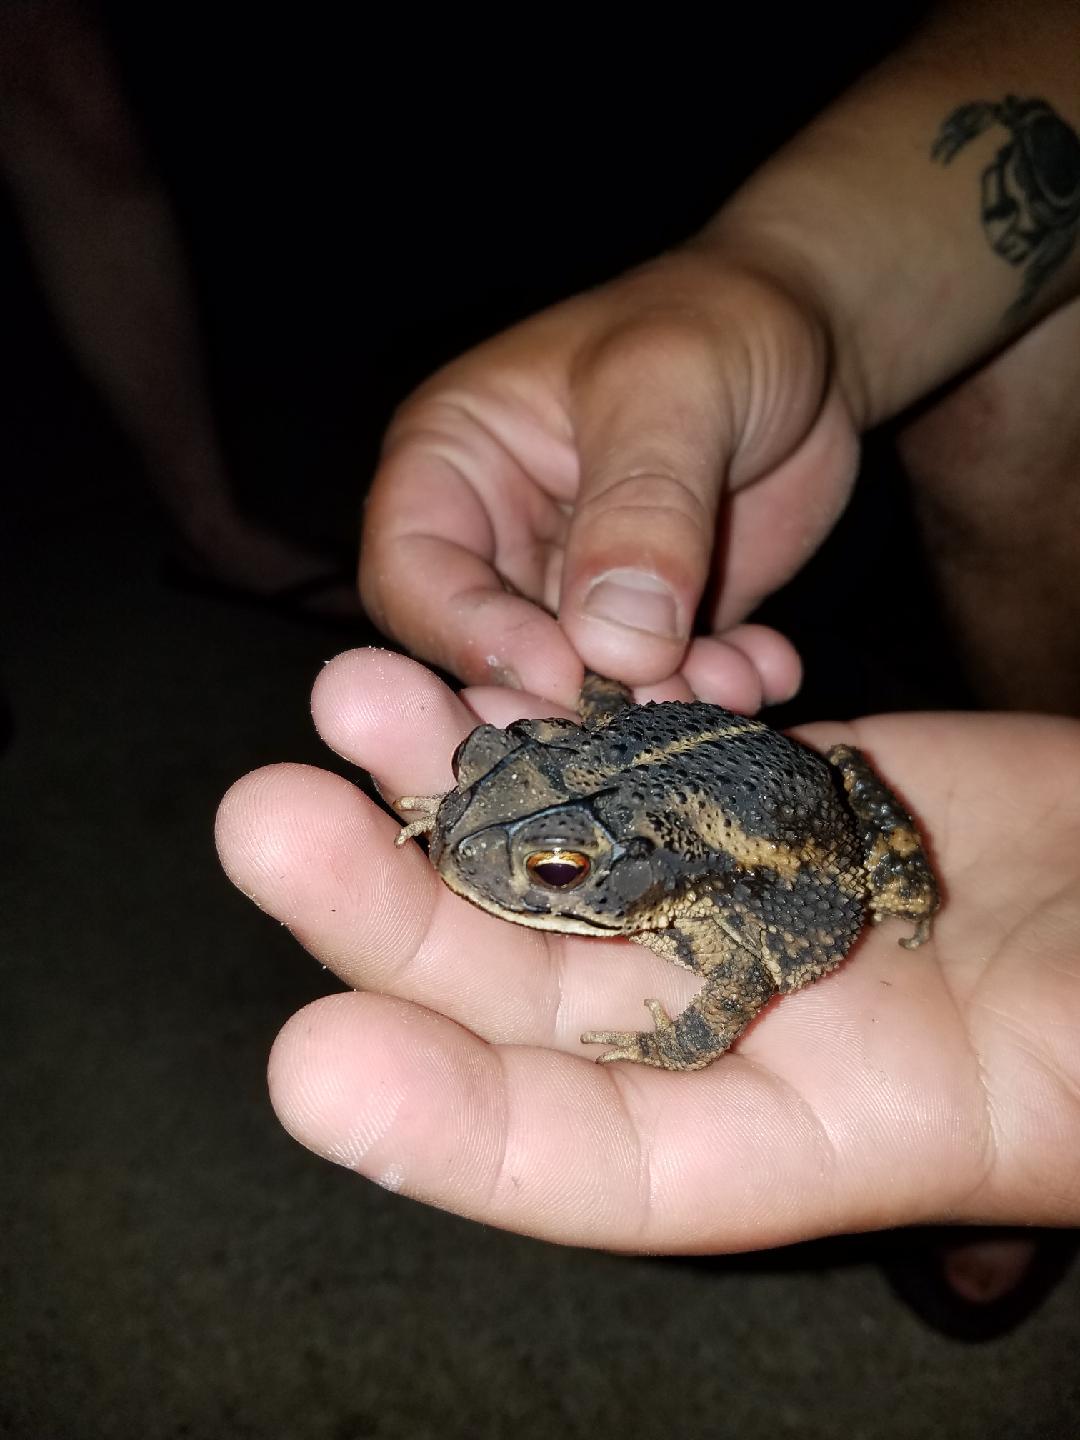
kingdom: Animalia
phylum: Chordata
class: Amphibia
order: Anura
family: Bufonidae
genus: Incilius
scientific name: Incilius nebulifer
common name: Gulf coast toad
